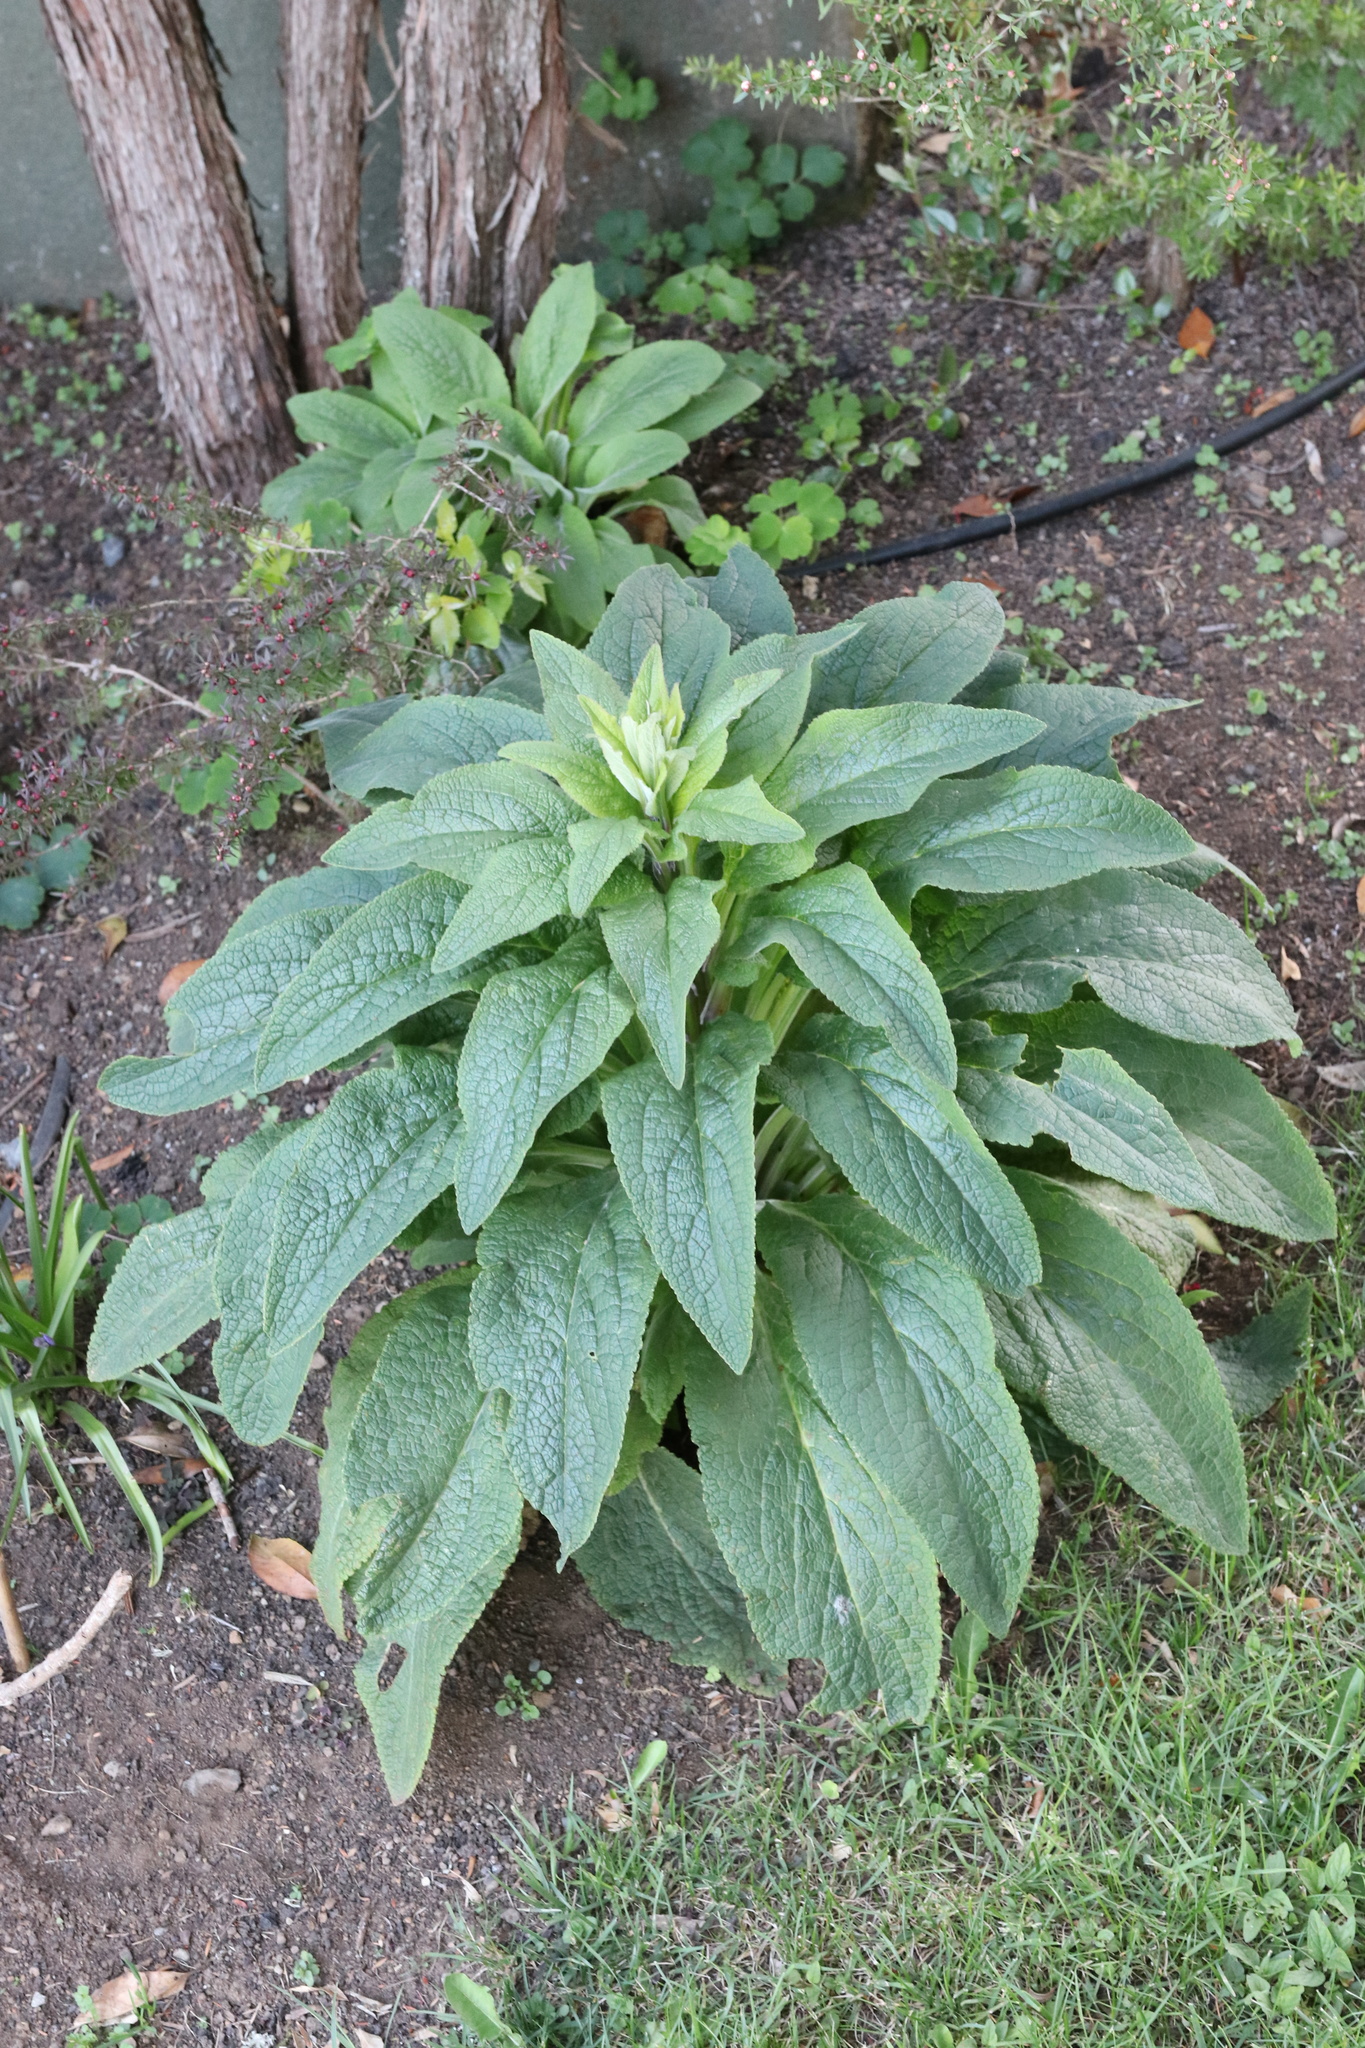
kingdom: Plantae
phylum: Tracheophyta
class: Magnoliopsida
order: Lamiales
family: Plantaginaceae
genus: Digitalis
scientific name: Digitalis purpurea
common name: Foxglove
